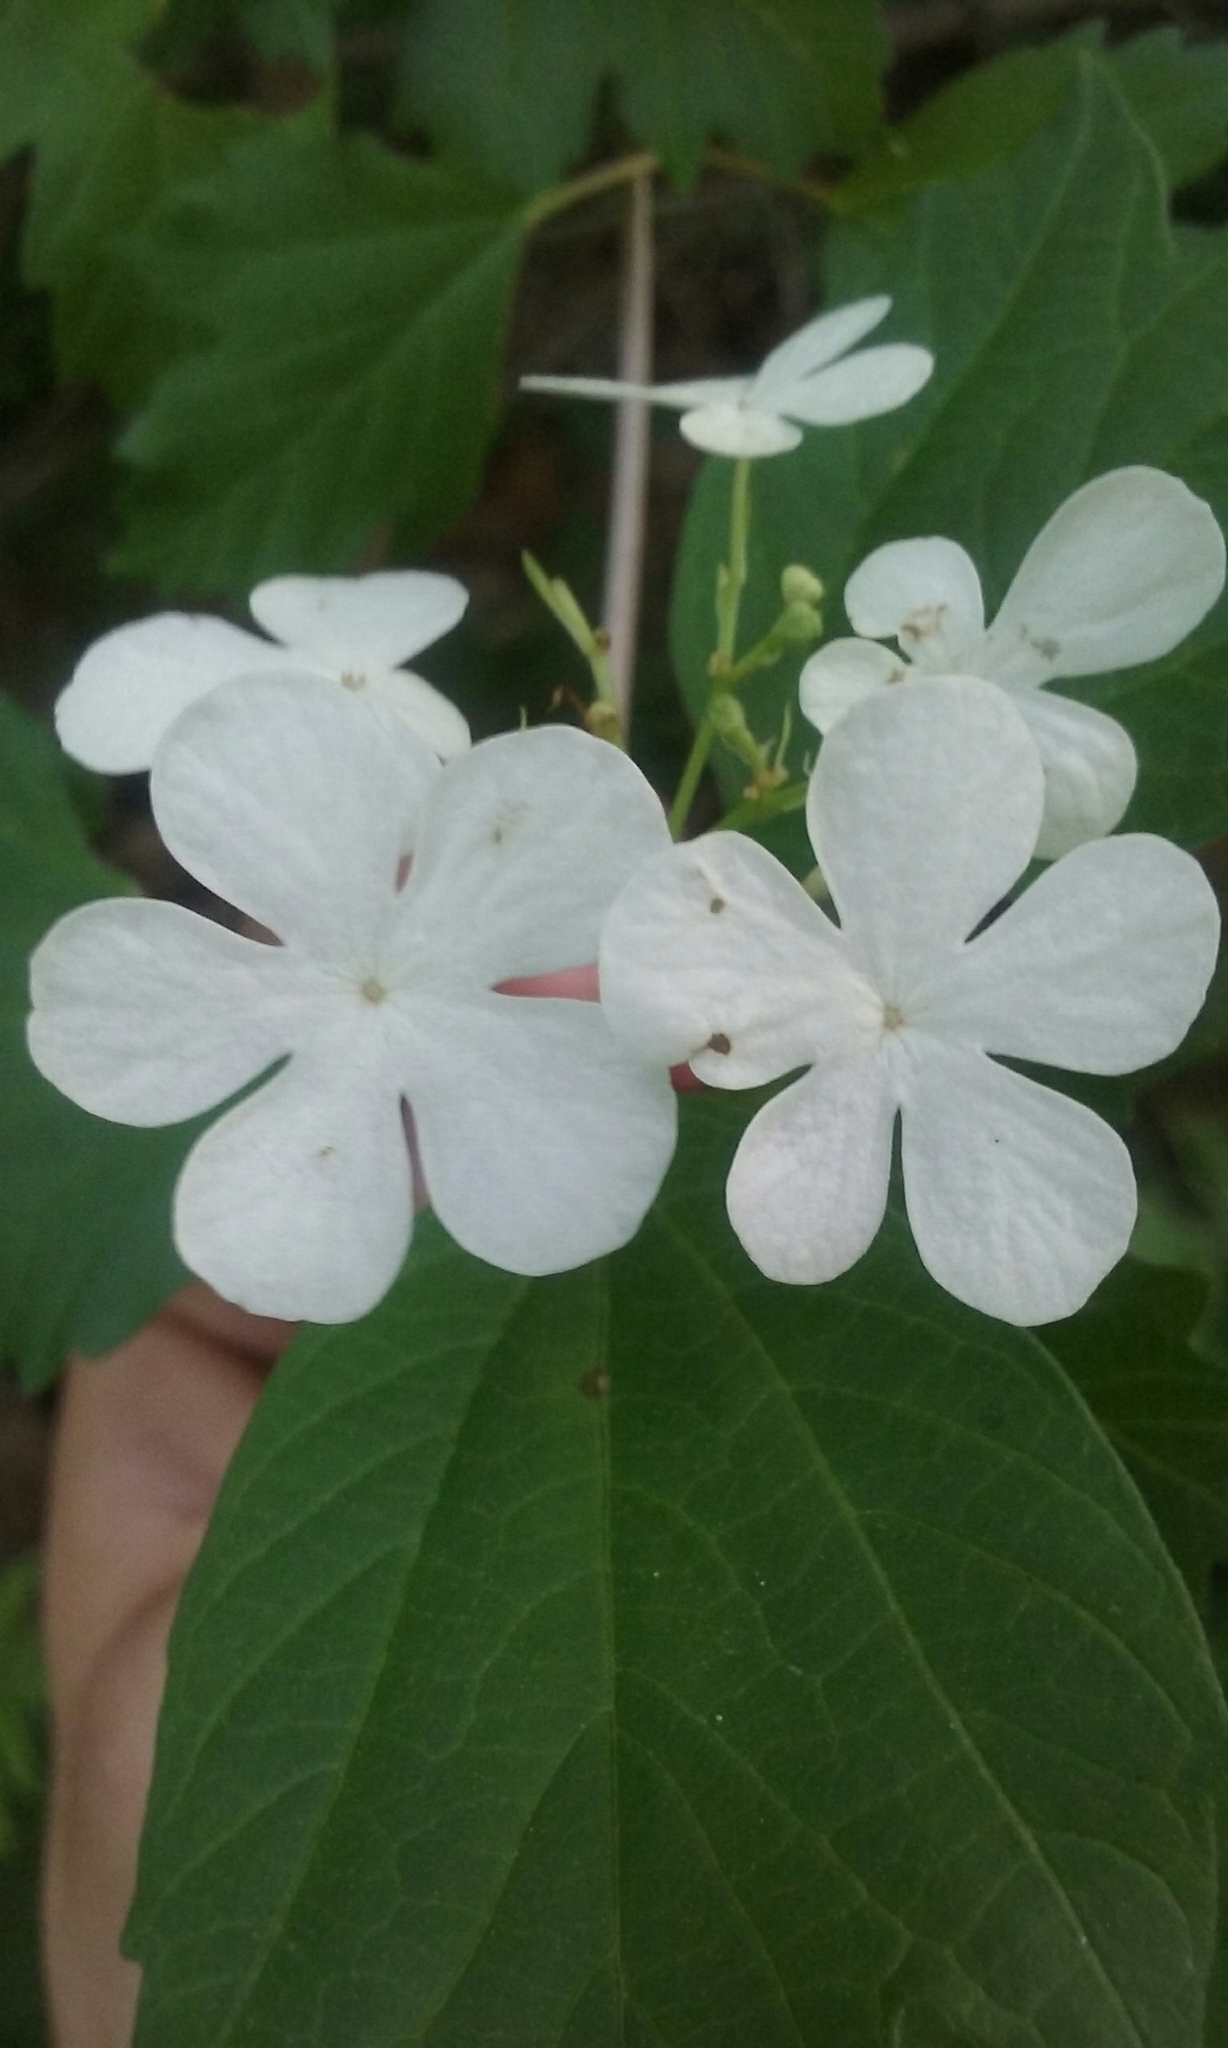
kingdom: Plantae
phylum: Tracheophyta
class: Magnoliopsida
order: Dipsacales
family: Viburnaceae
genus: Viburnum
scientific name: Viburnum opulus
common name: Guelder-rose
